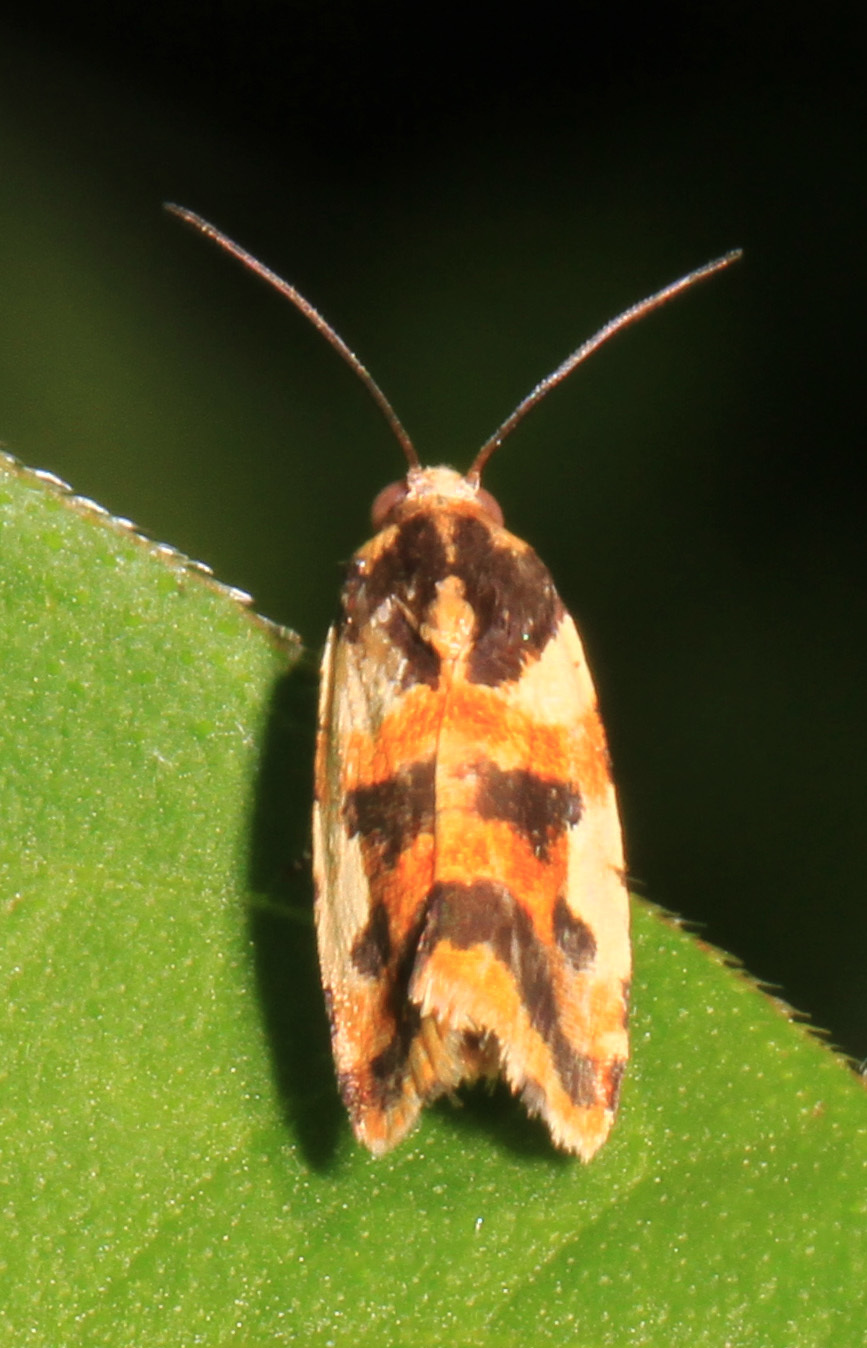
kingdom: Animalia
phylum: Arthropoda
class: Insecta
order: Lepidoptera
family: Noctuidae
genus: Acontia
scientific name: Acontia dama
